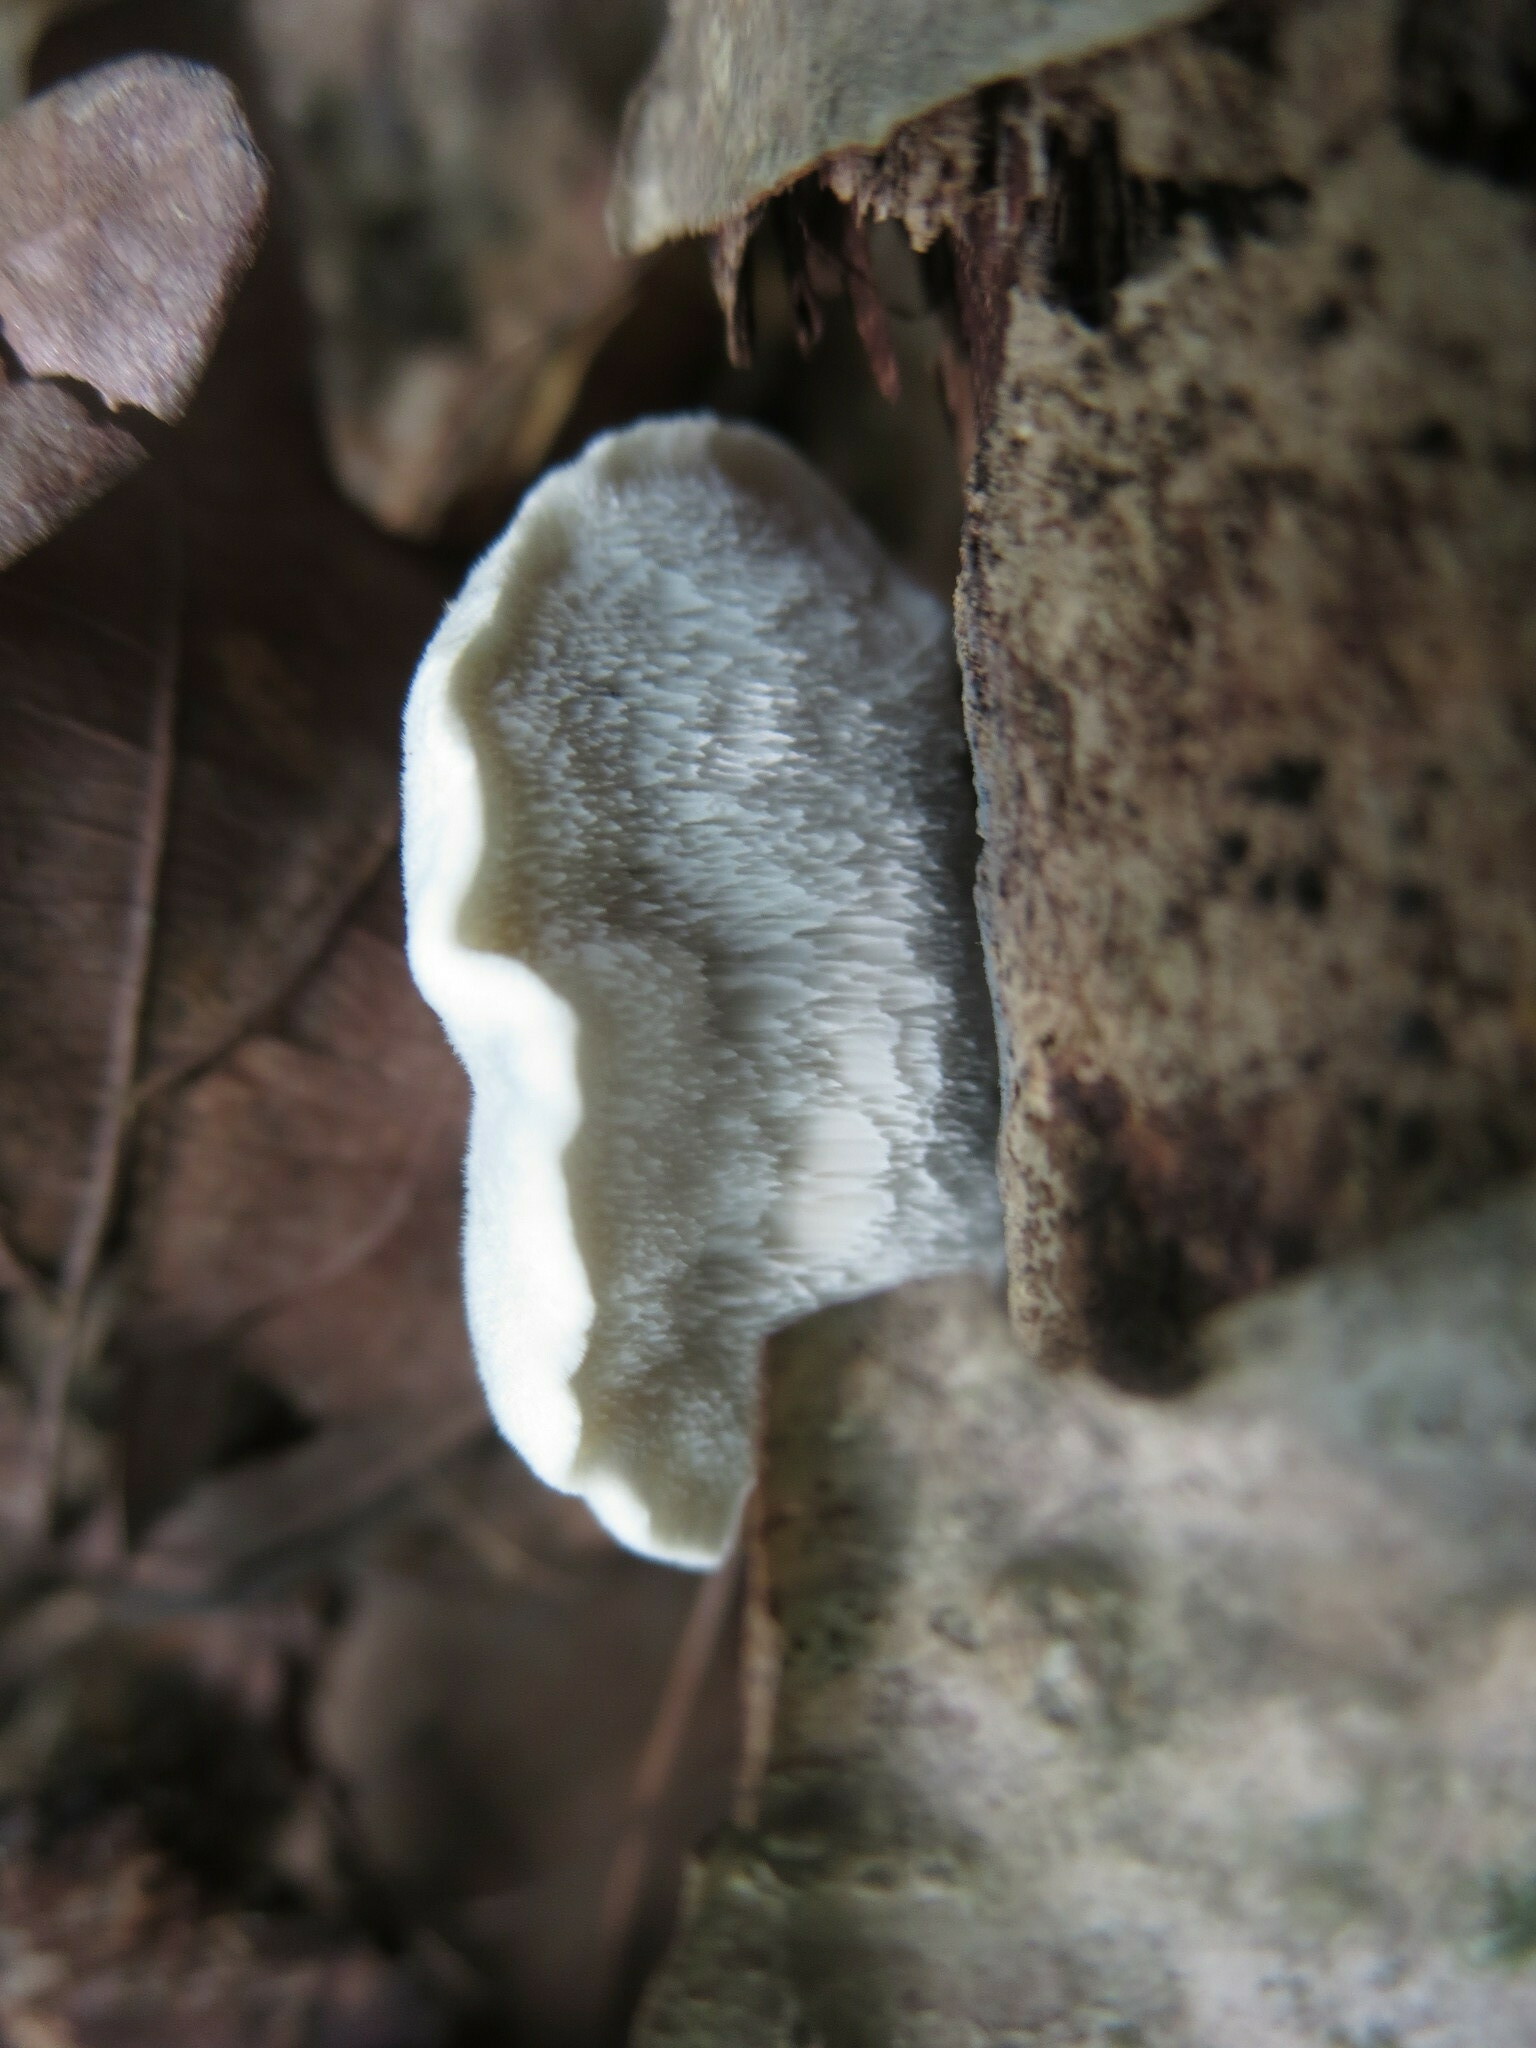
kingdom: Fungi
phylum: Basidiomycota
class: Agaricomycetes
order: Polyporales
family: Polyporaceae
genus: Cyanosporus
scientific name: Cyanosporus livens
